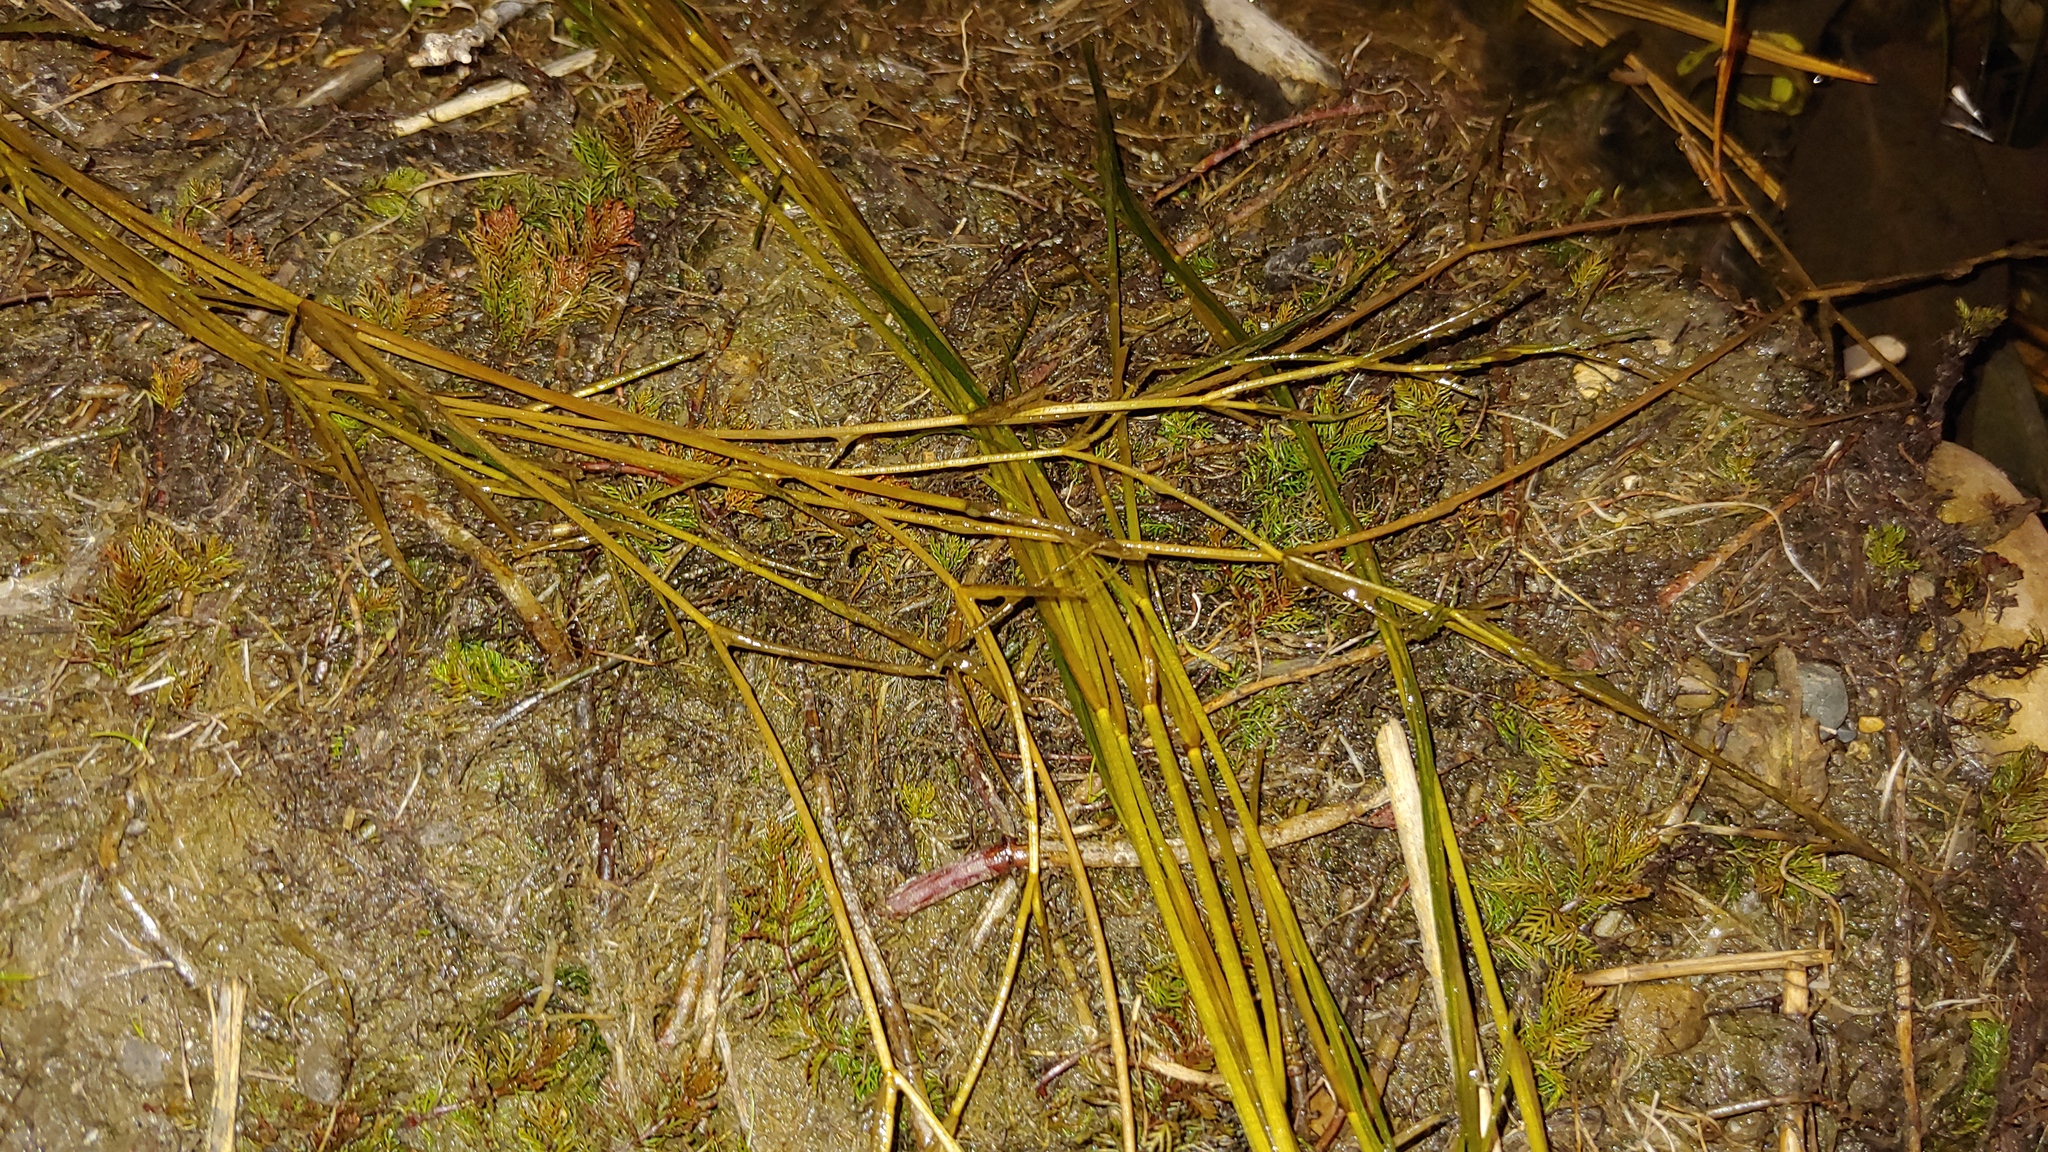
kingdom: Plantae
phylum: Tracheophyta
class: Liliopsida
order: Alismatales
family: Potamogetonaceae
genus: Stuckenia
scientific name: Stuckenia pectinata
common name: Sago pondweed
